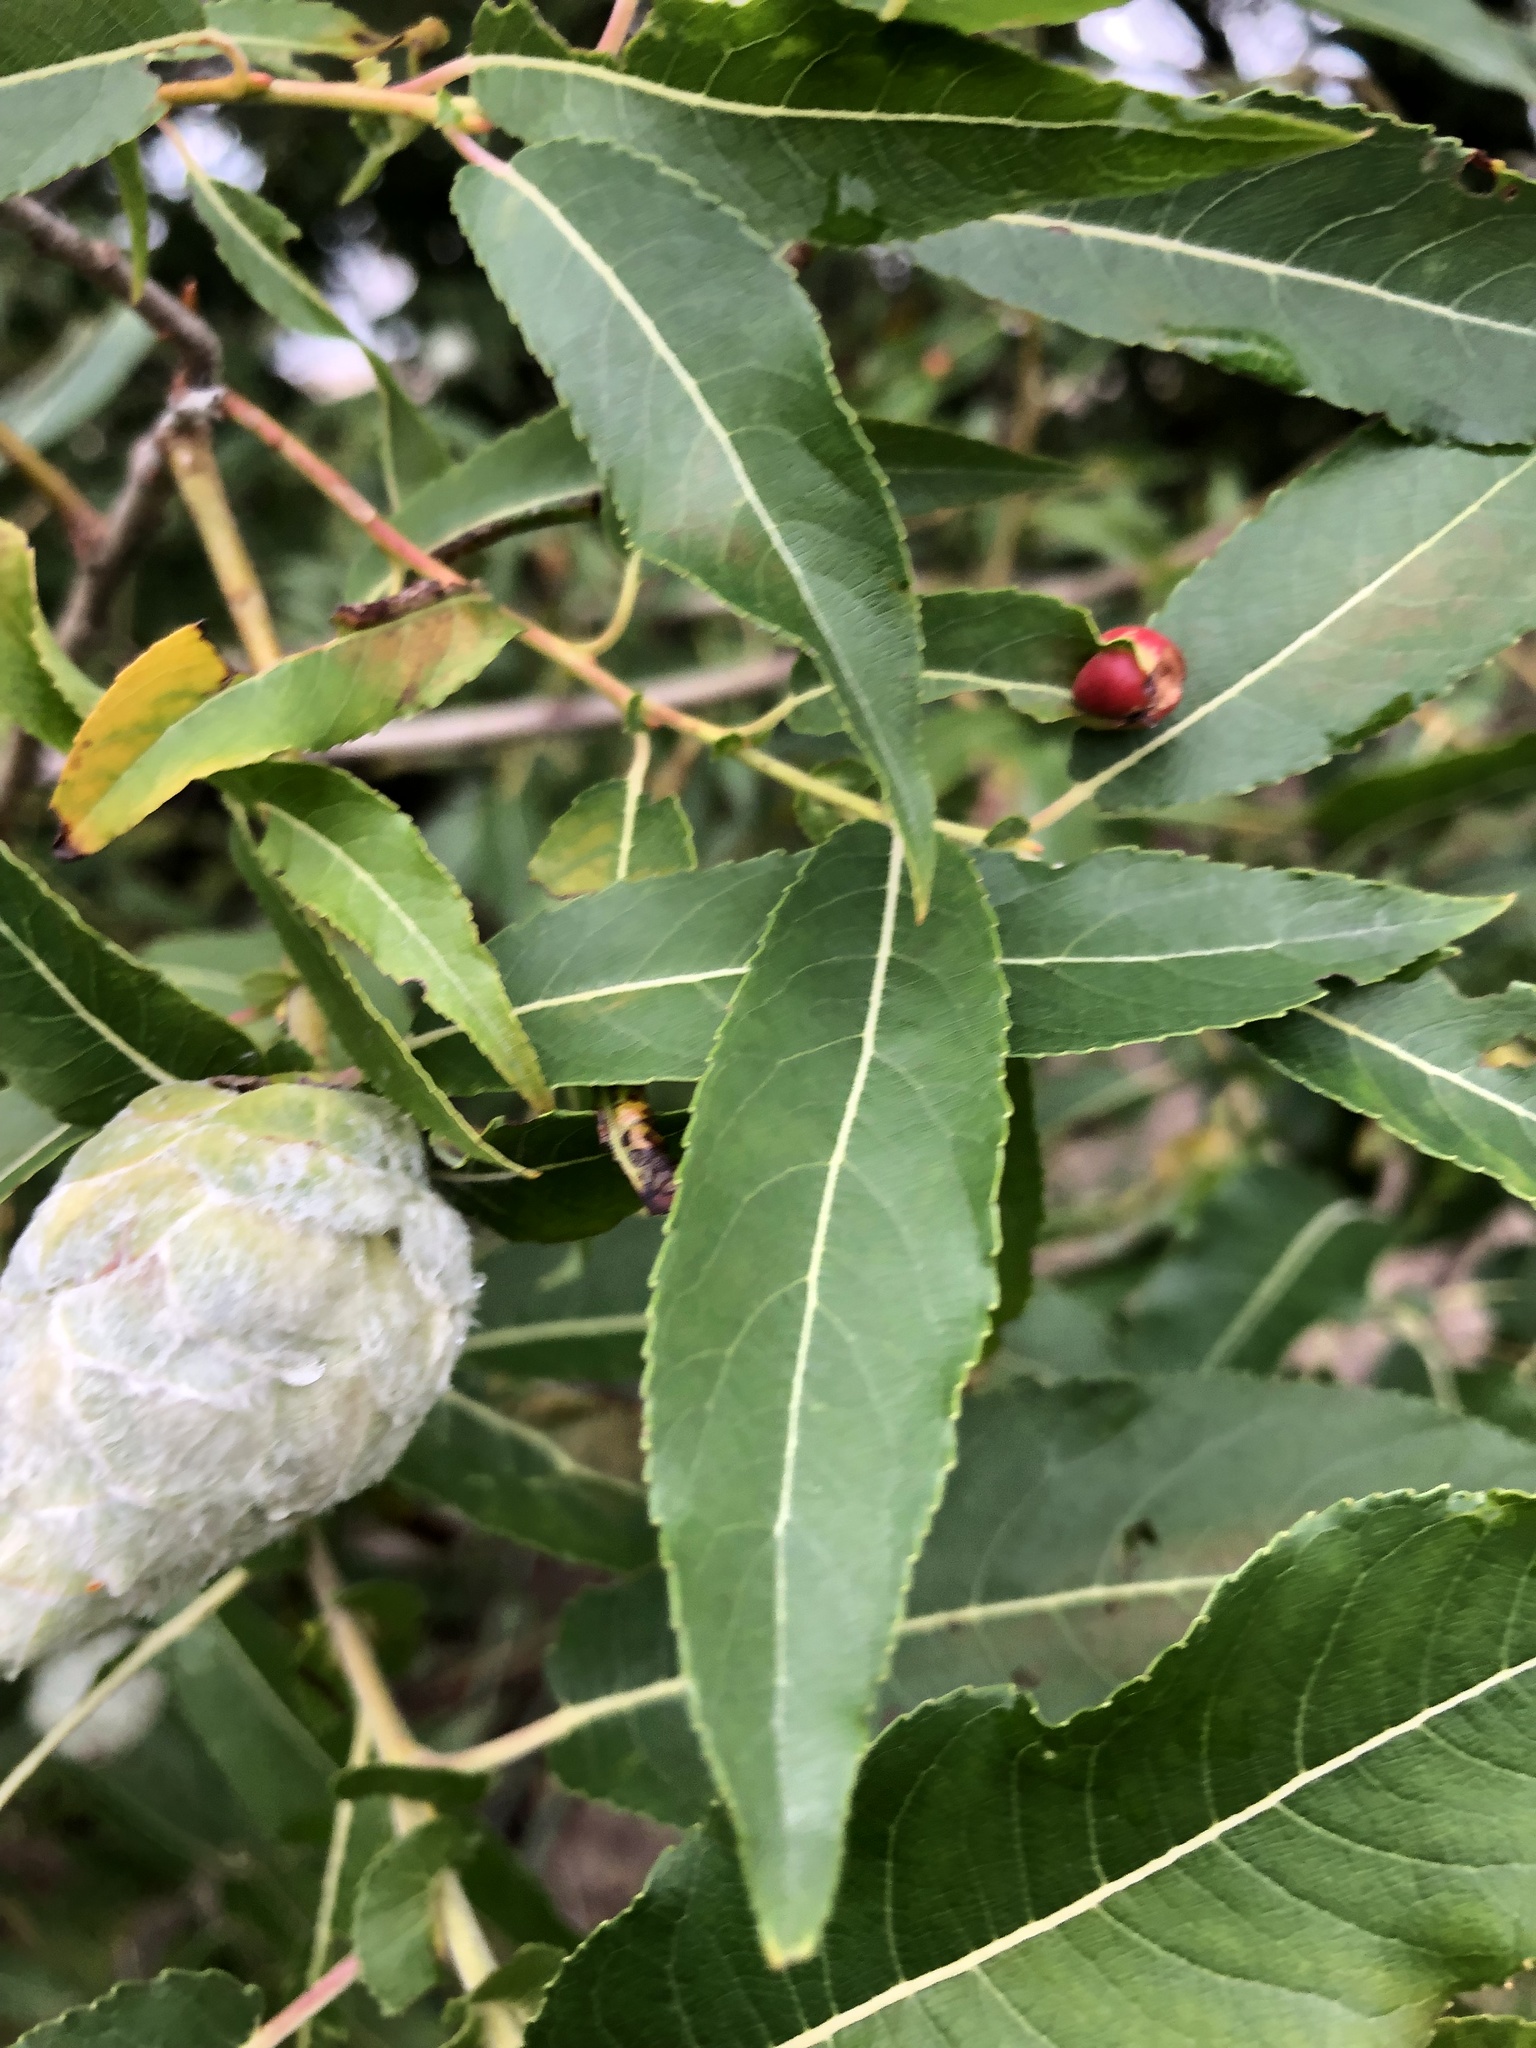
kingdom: Animalia
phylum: Arthropoda
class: Insecta
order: Diptera
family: Cecidomyiidae
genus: Rabdophaga
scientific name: Rabdophaga strobiloides
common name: Willow pinecone gall midge
